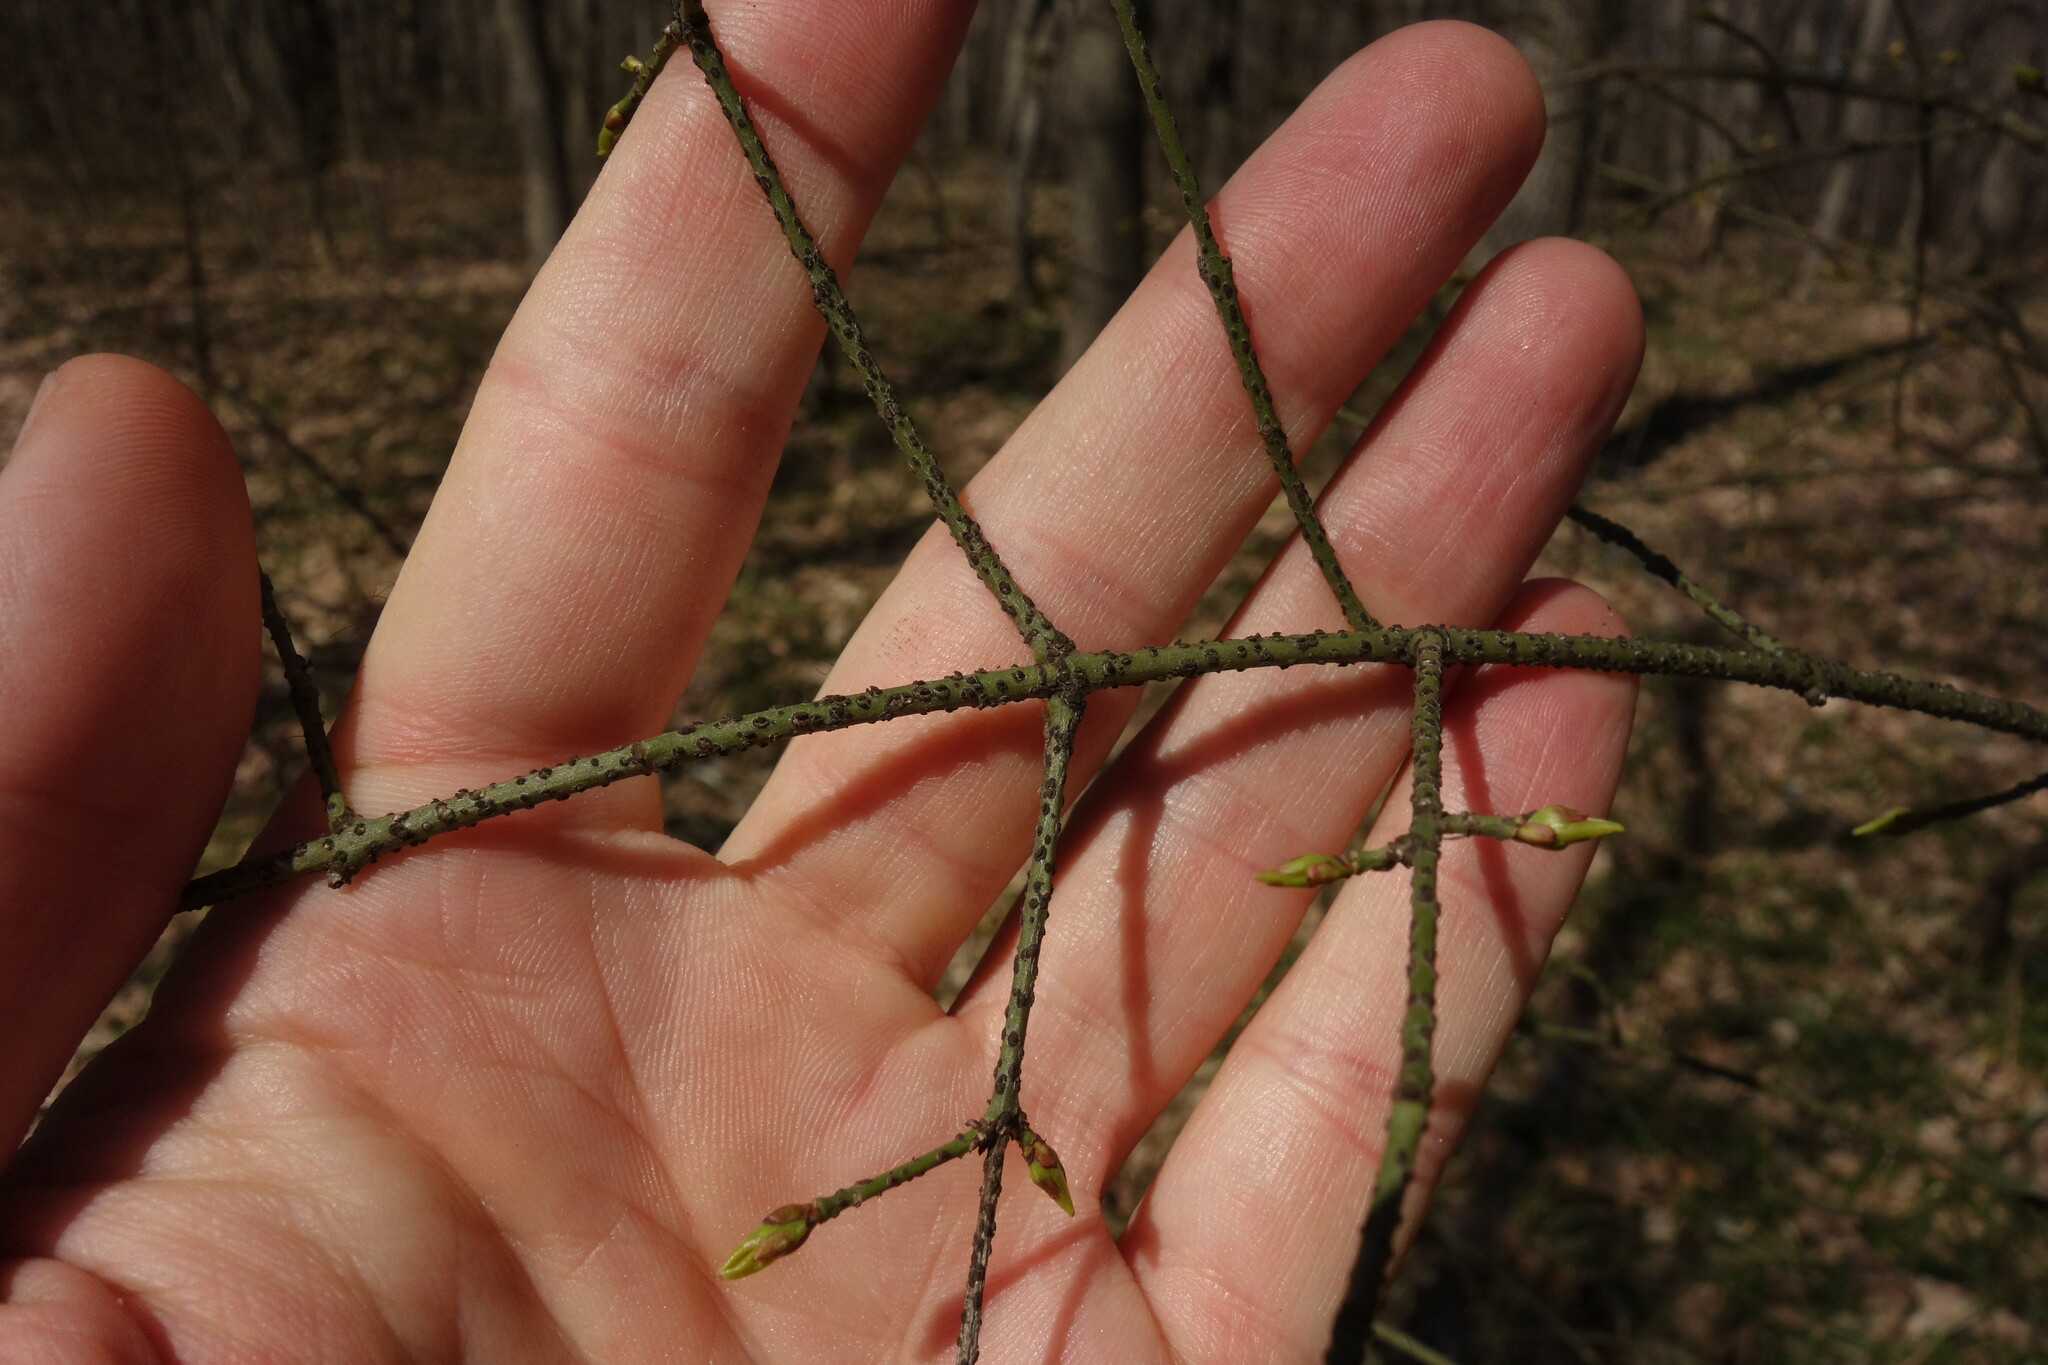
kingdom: Plantae
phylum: Tracheophyta
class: Magnoliopsida
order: Celastrales
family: Celastraceae
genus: Euonymus
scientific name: Euonymus verrucosus
